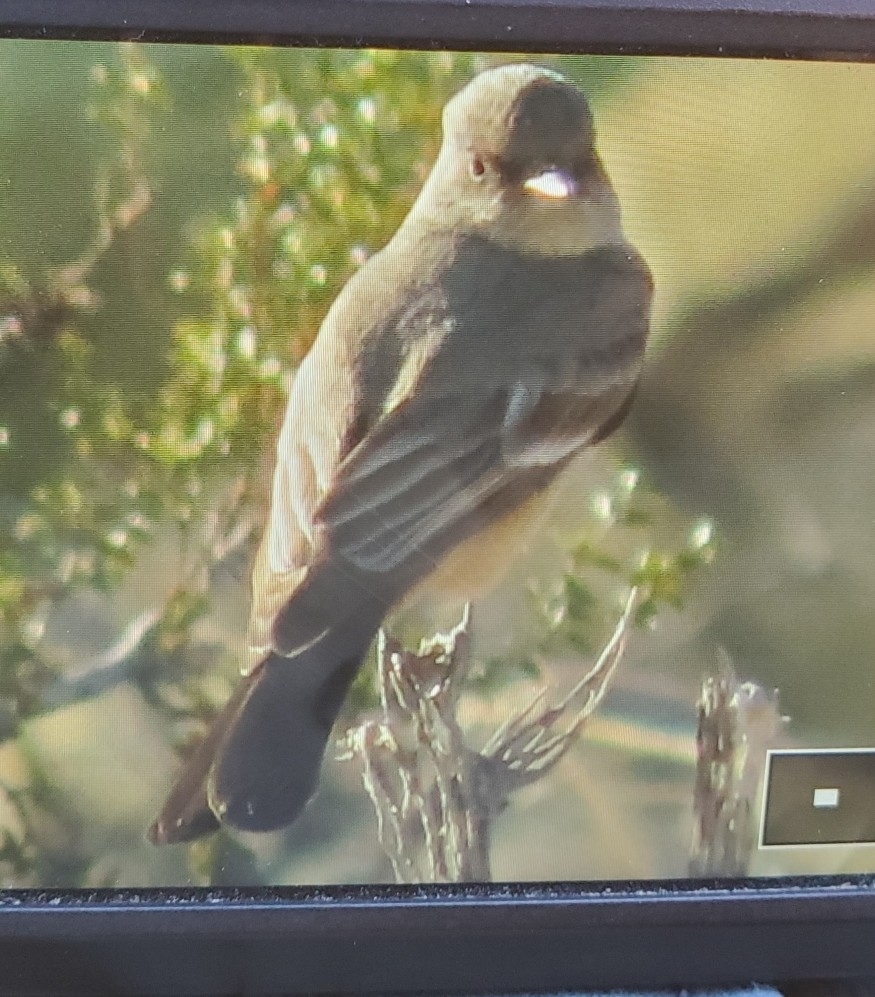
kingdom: Animalia
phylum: Chordata
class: Aves
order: Passeriformes
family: Tyrannidae
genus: Sayornis
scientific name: Sayornis saya
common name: Say's phoebe
